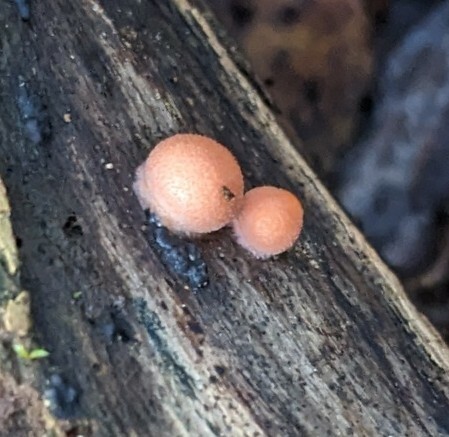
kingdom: Protozoa
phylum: Mycetozoa
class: Myxomycetes
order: Cribrariales
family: Tubiferaceae
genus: Lycogala
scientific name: Lycogala epidendrum
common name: Wolf's milk
